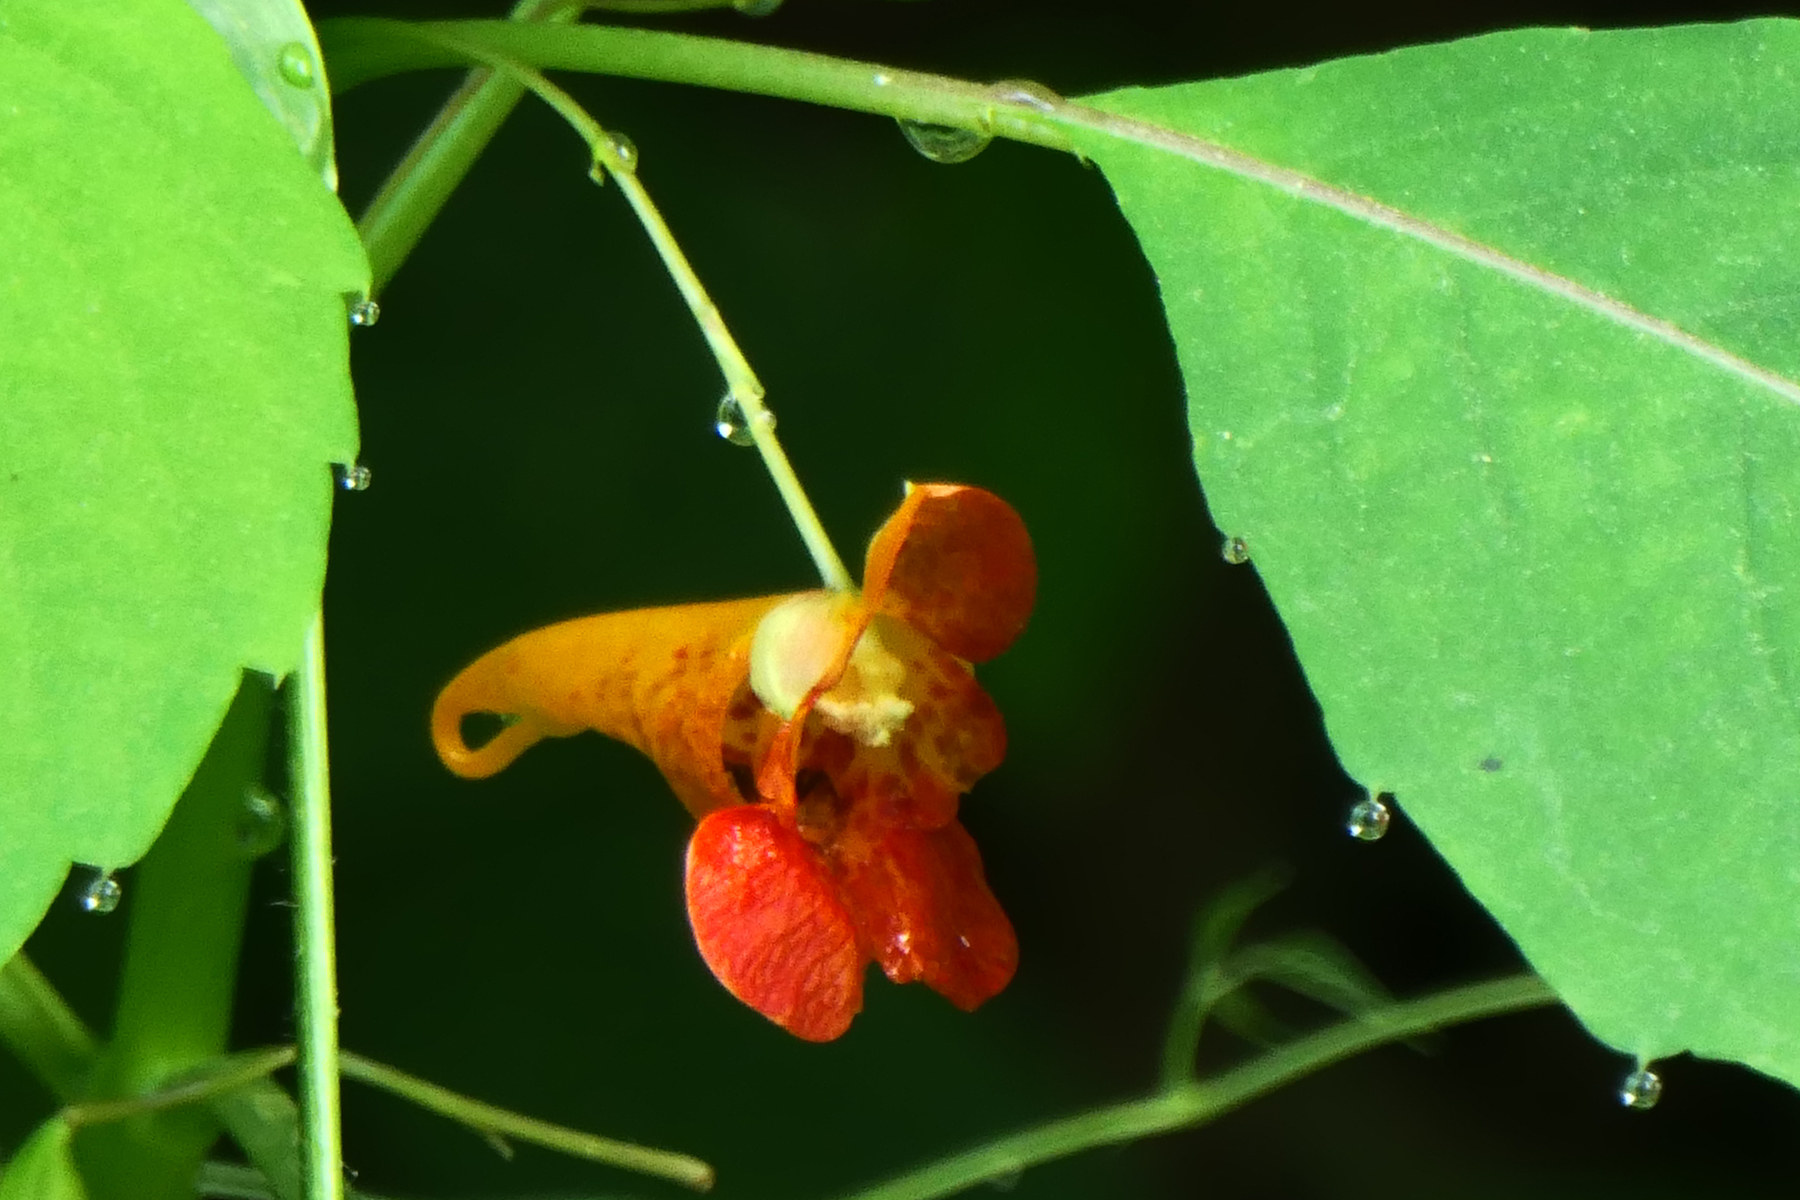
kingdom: Plantae
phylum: Tracheophyta
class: Magnoliopsida
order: Ericales
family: Balsaminaceae
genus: Impatiens
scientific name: Impatiens capensis
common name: Orange balsam
